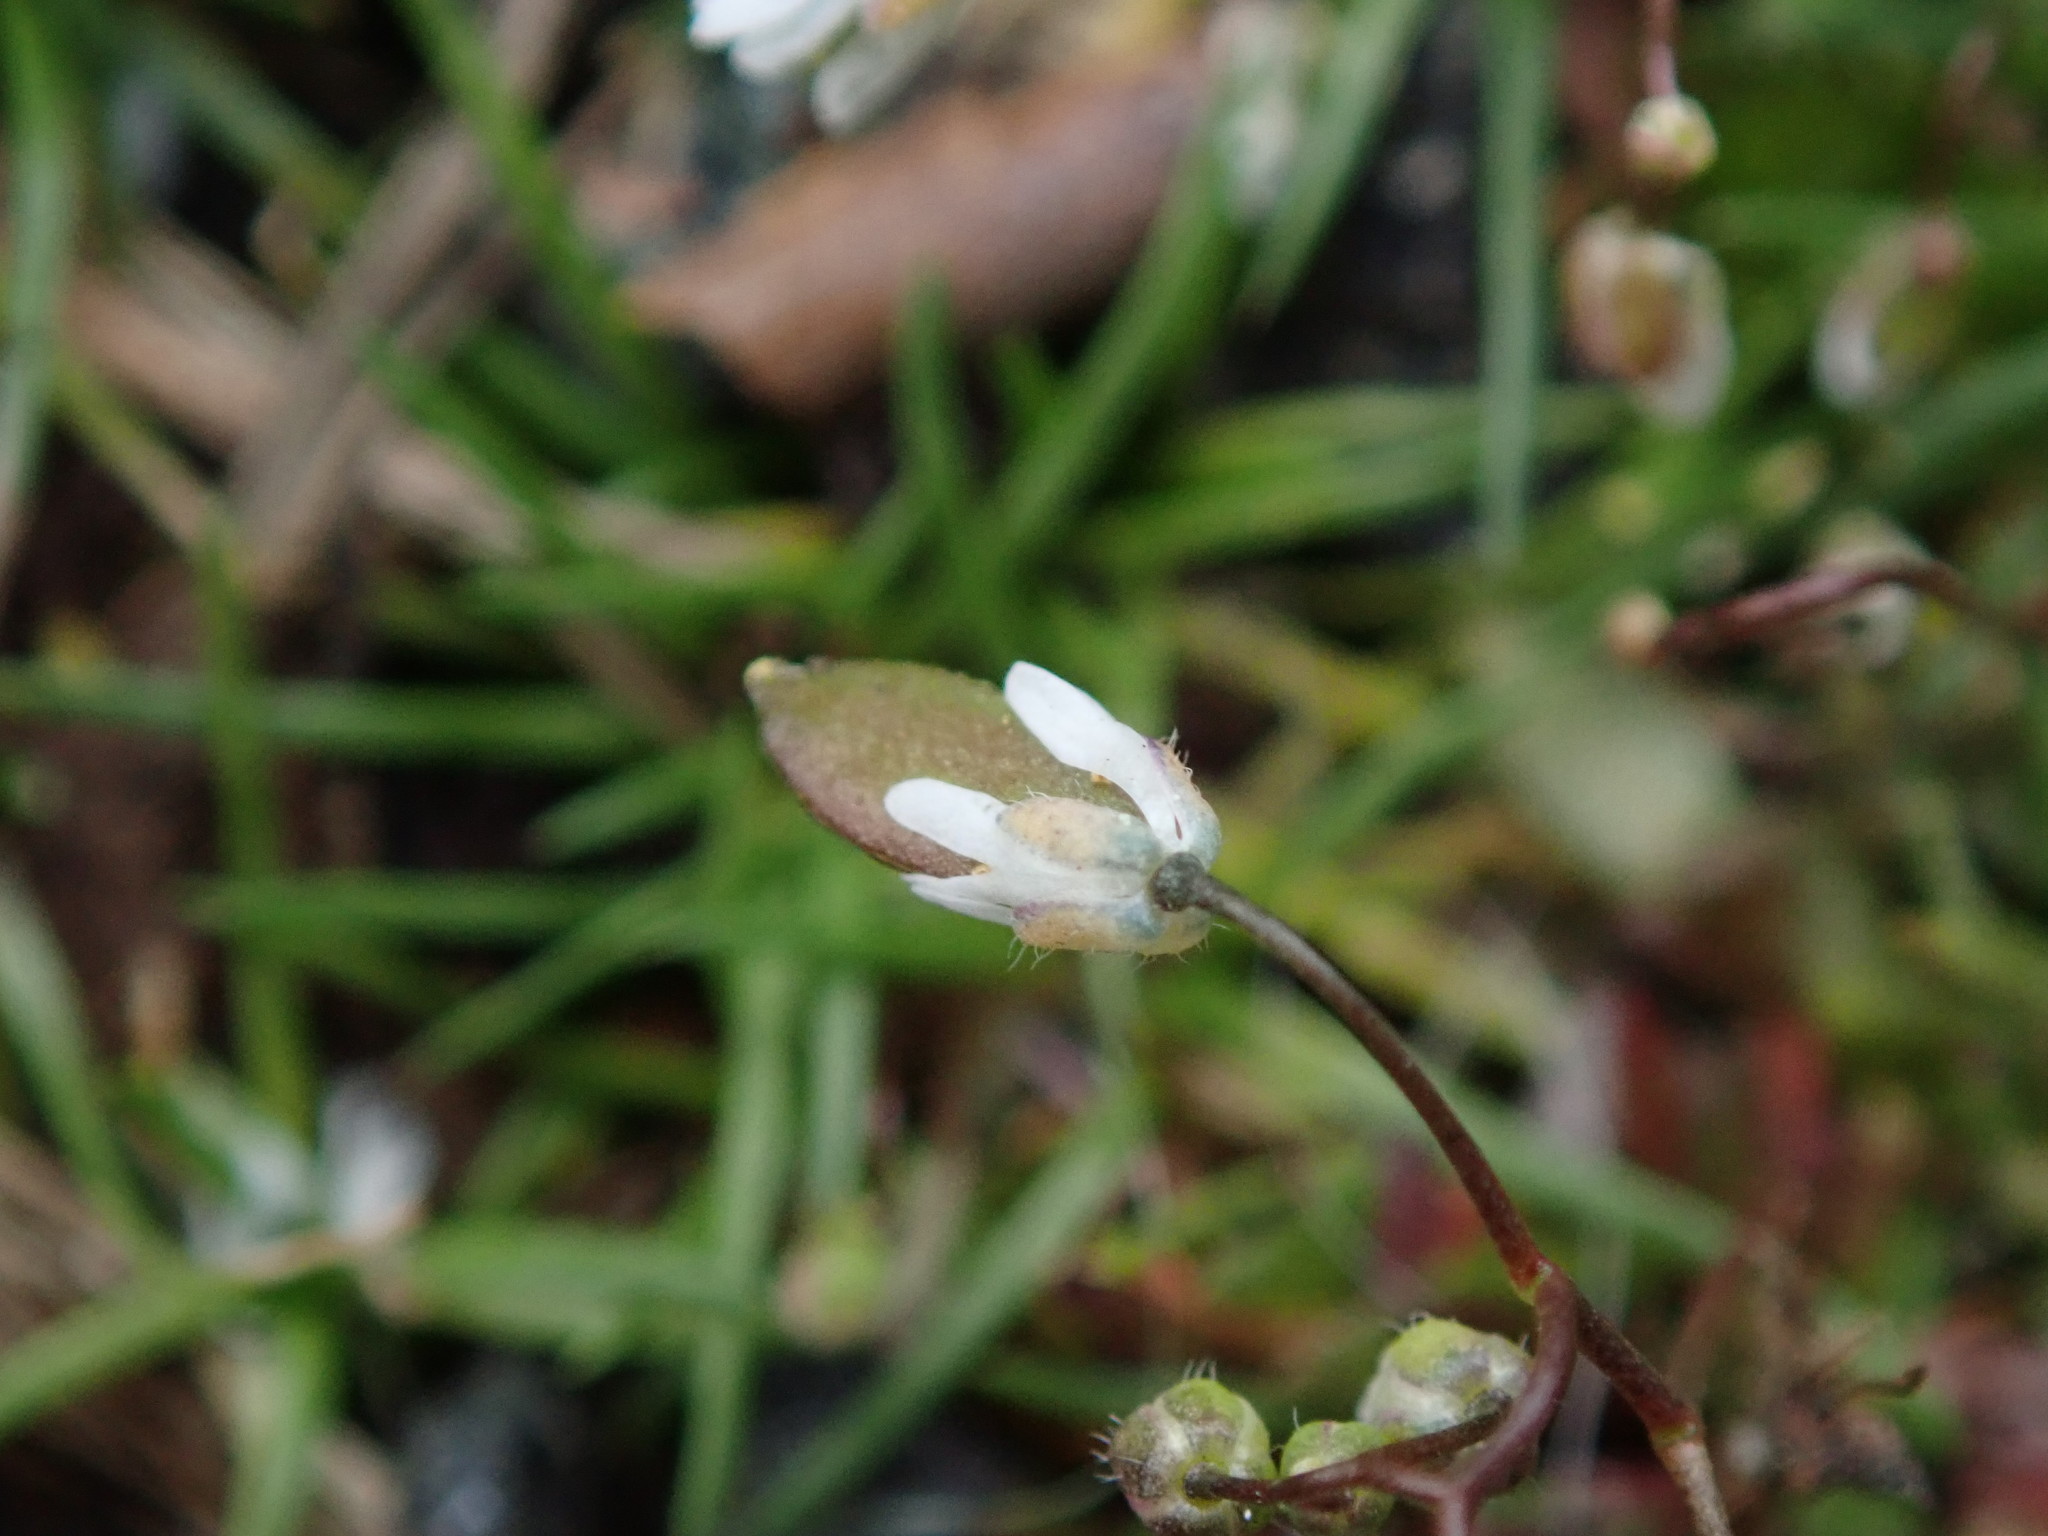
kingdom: Plantae
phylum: Tracheophyta
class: Magnoliopsida
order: Brassicales
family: Brassicaceae
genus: Draba
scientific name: Draba verna
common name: Spring draba
